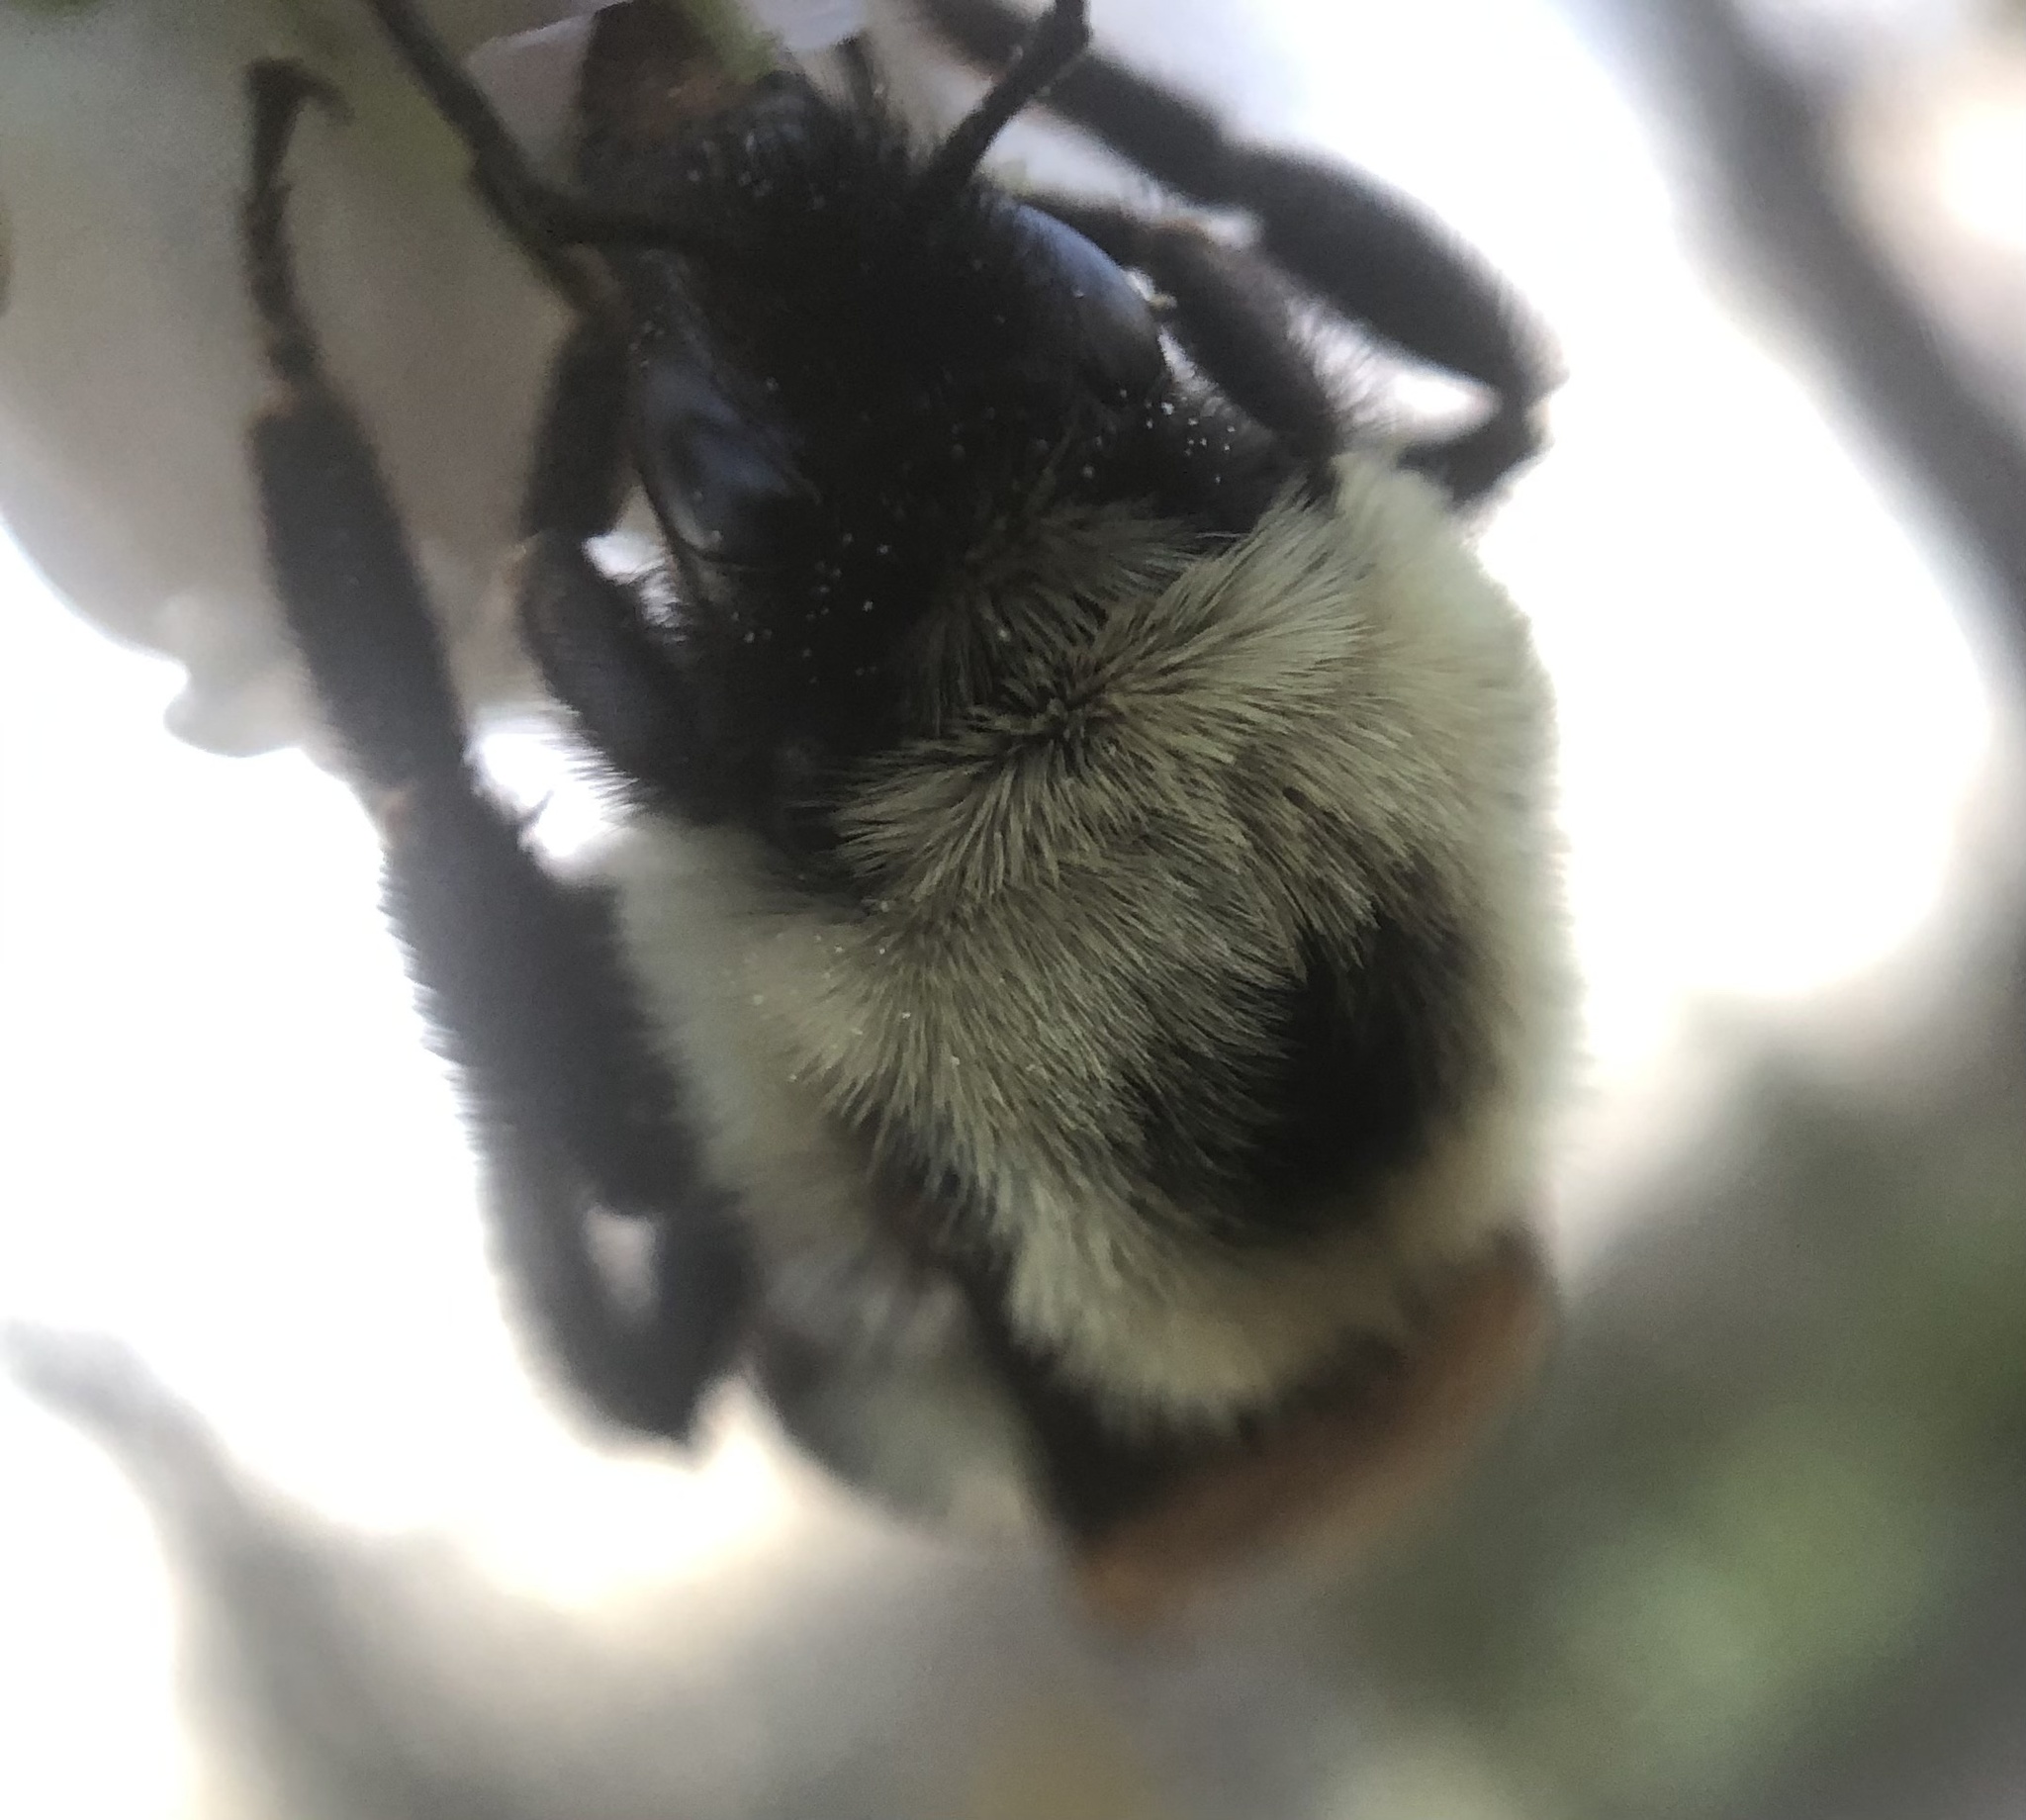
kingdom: Animalia
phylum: Arthropoda
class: Insecta
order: Hymenoptera
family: Apidae
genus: Bombus
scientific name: Bombus bimaculatus
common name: Two-spotted bumble bee
